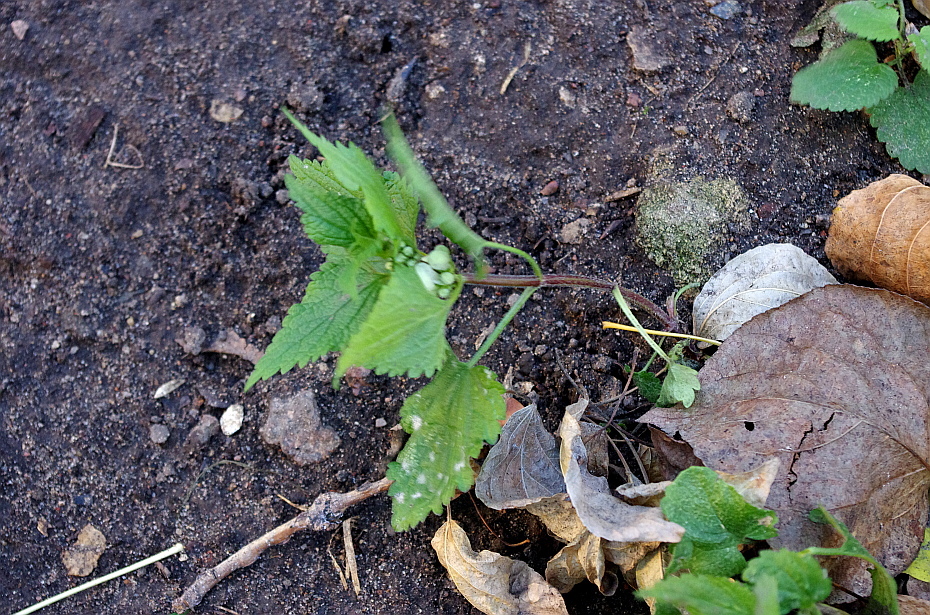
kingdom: Plantae
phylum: Tracheophyta
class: Magnoliopsida
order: Lamiales
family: Lamiaceae
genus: Lamium
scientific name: Lamium album
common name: White dead-nettle
